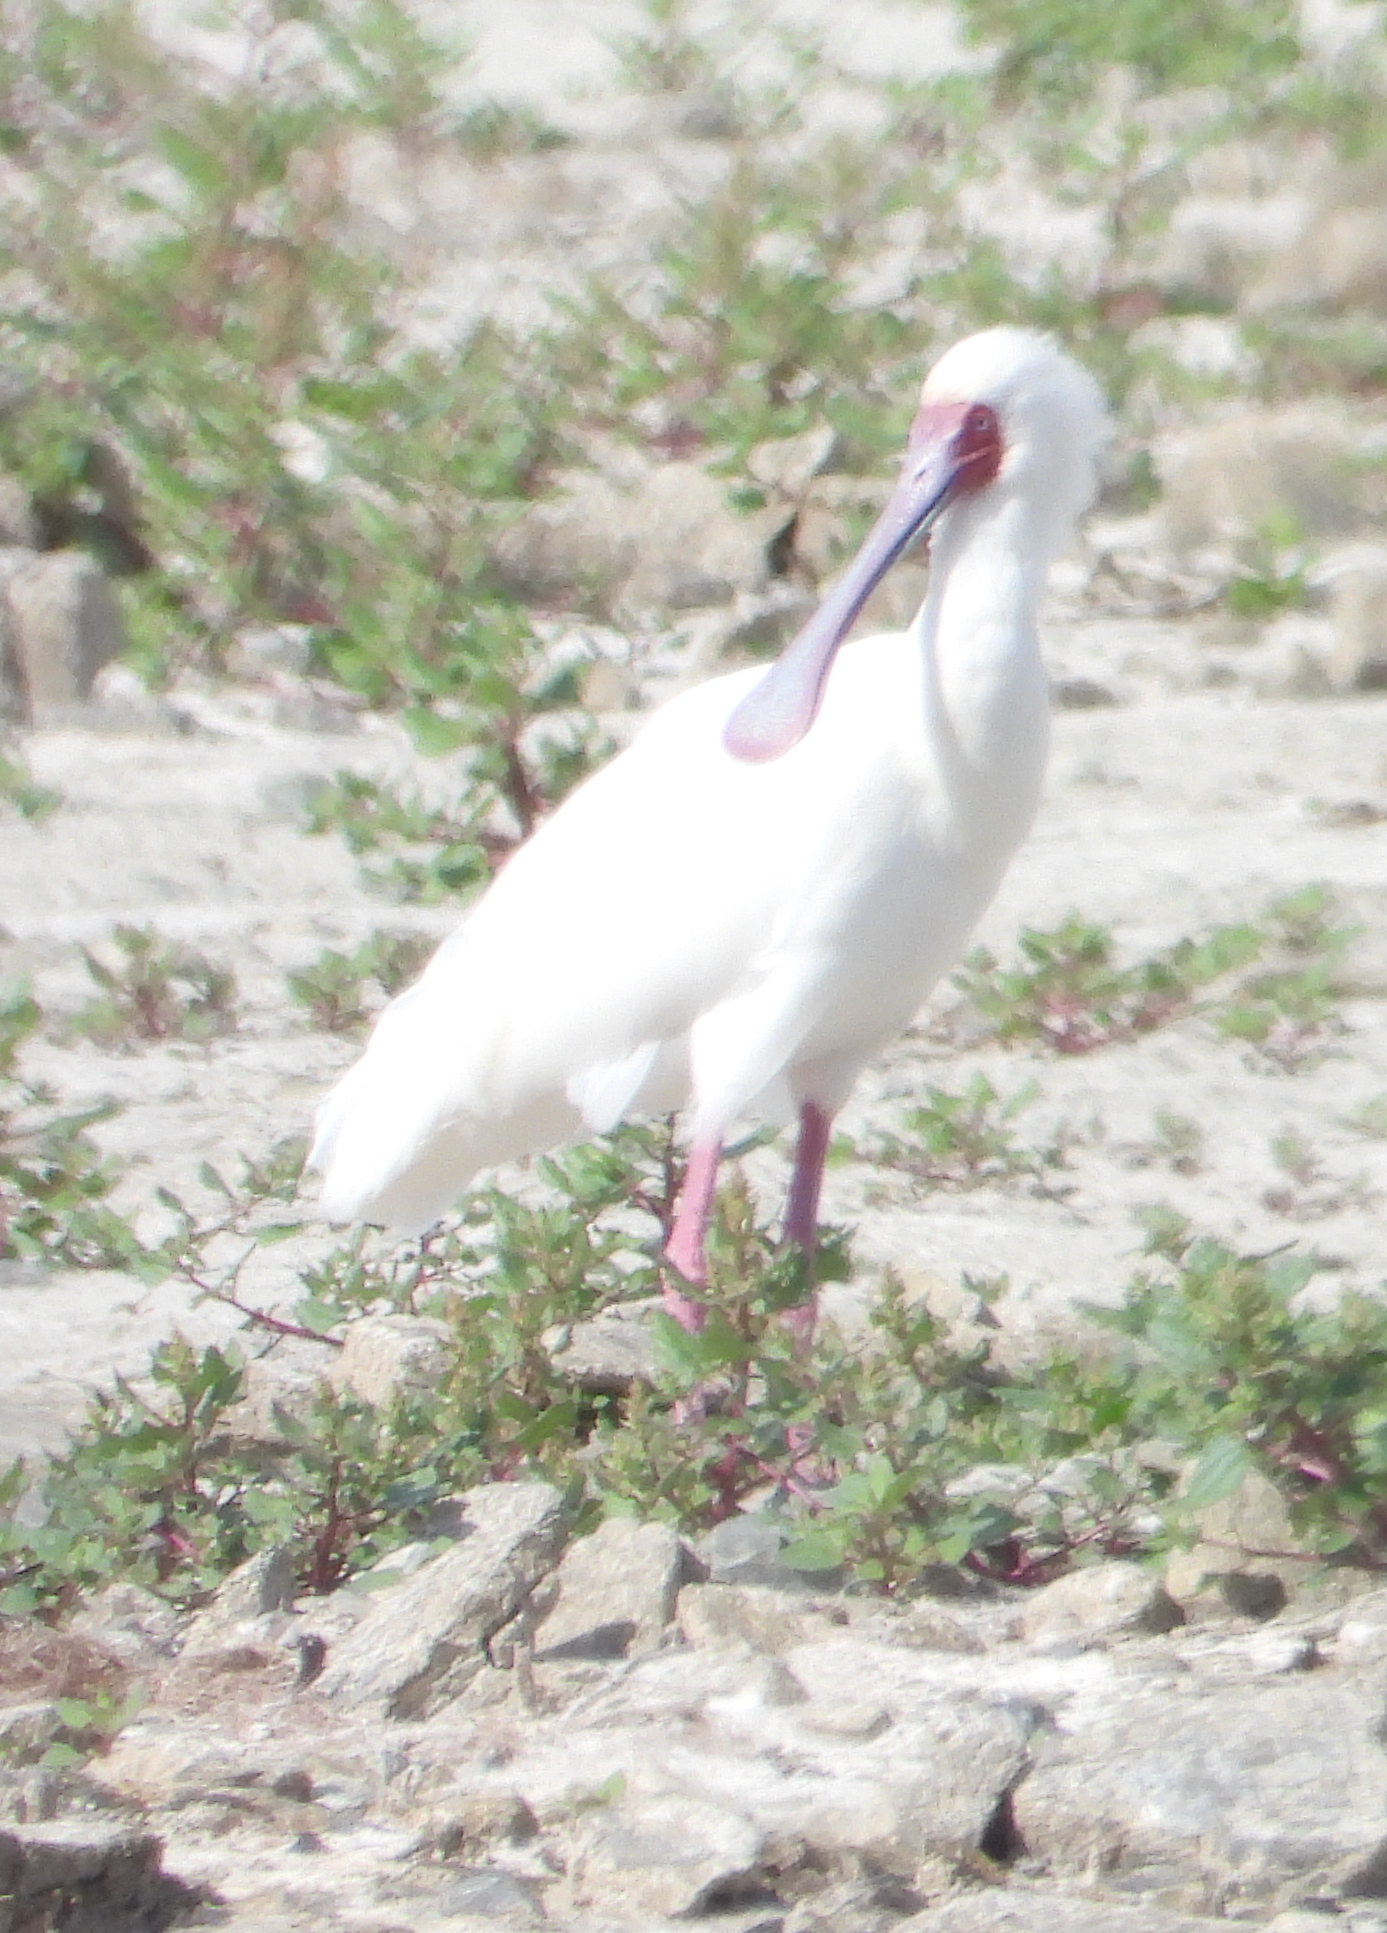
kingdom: Animalia
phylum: Chordata
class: Aves
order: Pelecaniformes
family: Threskiornithidae
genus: Platalea
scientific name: Platalea alba
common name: African spoonbill
